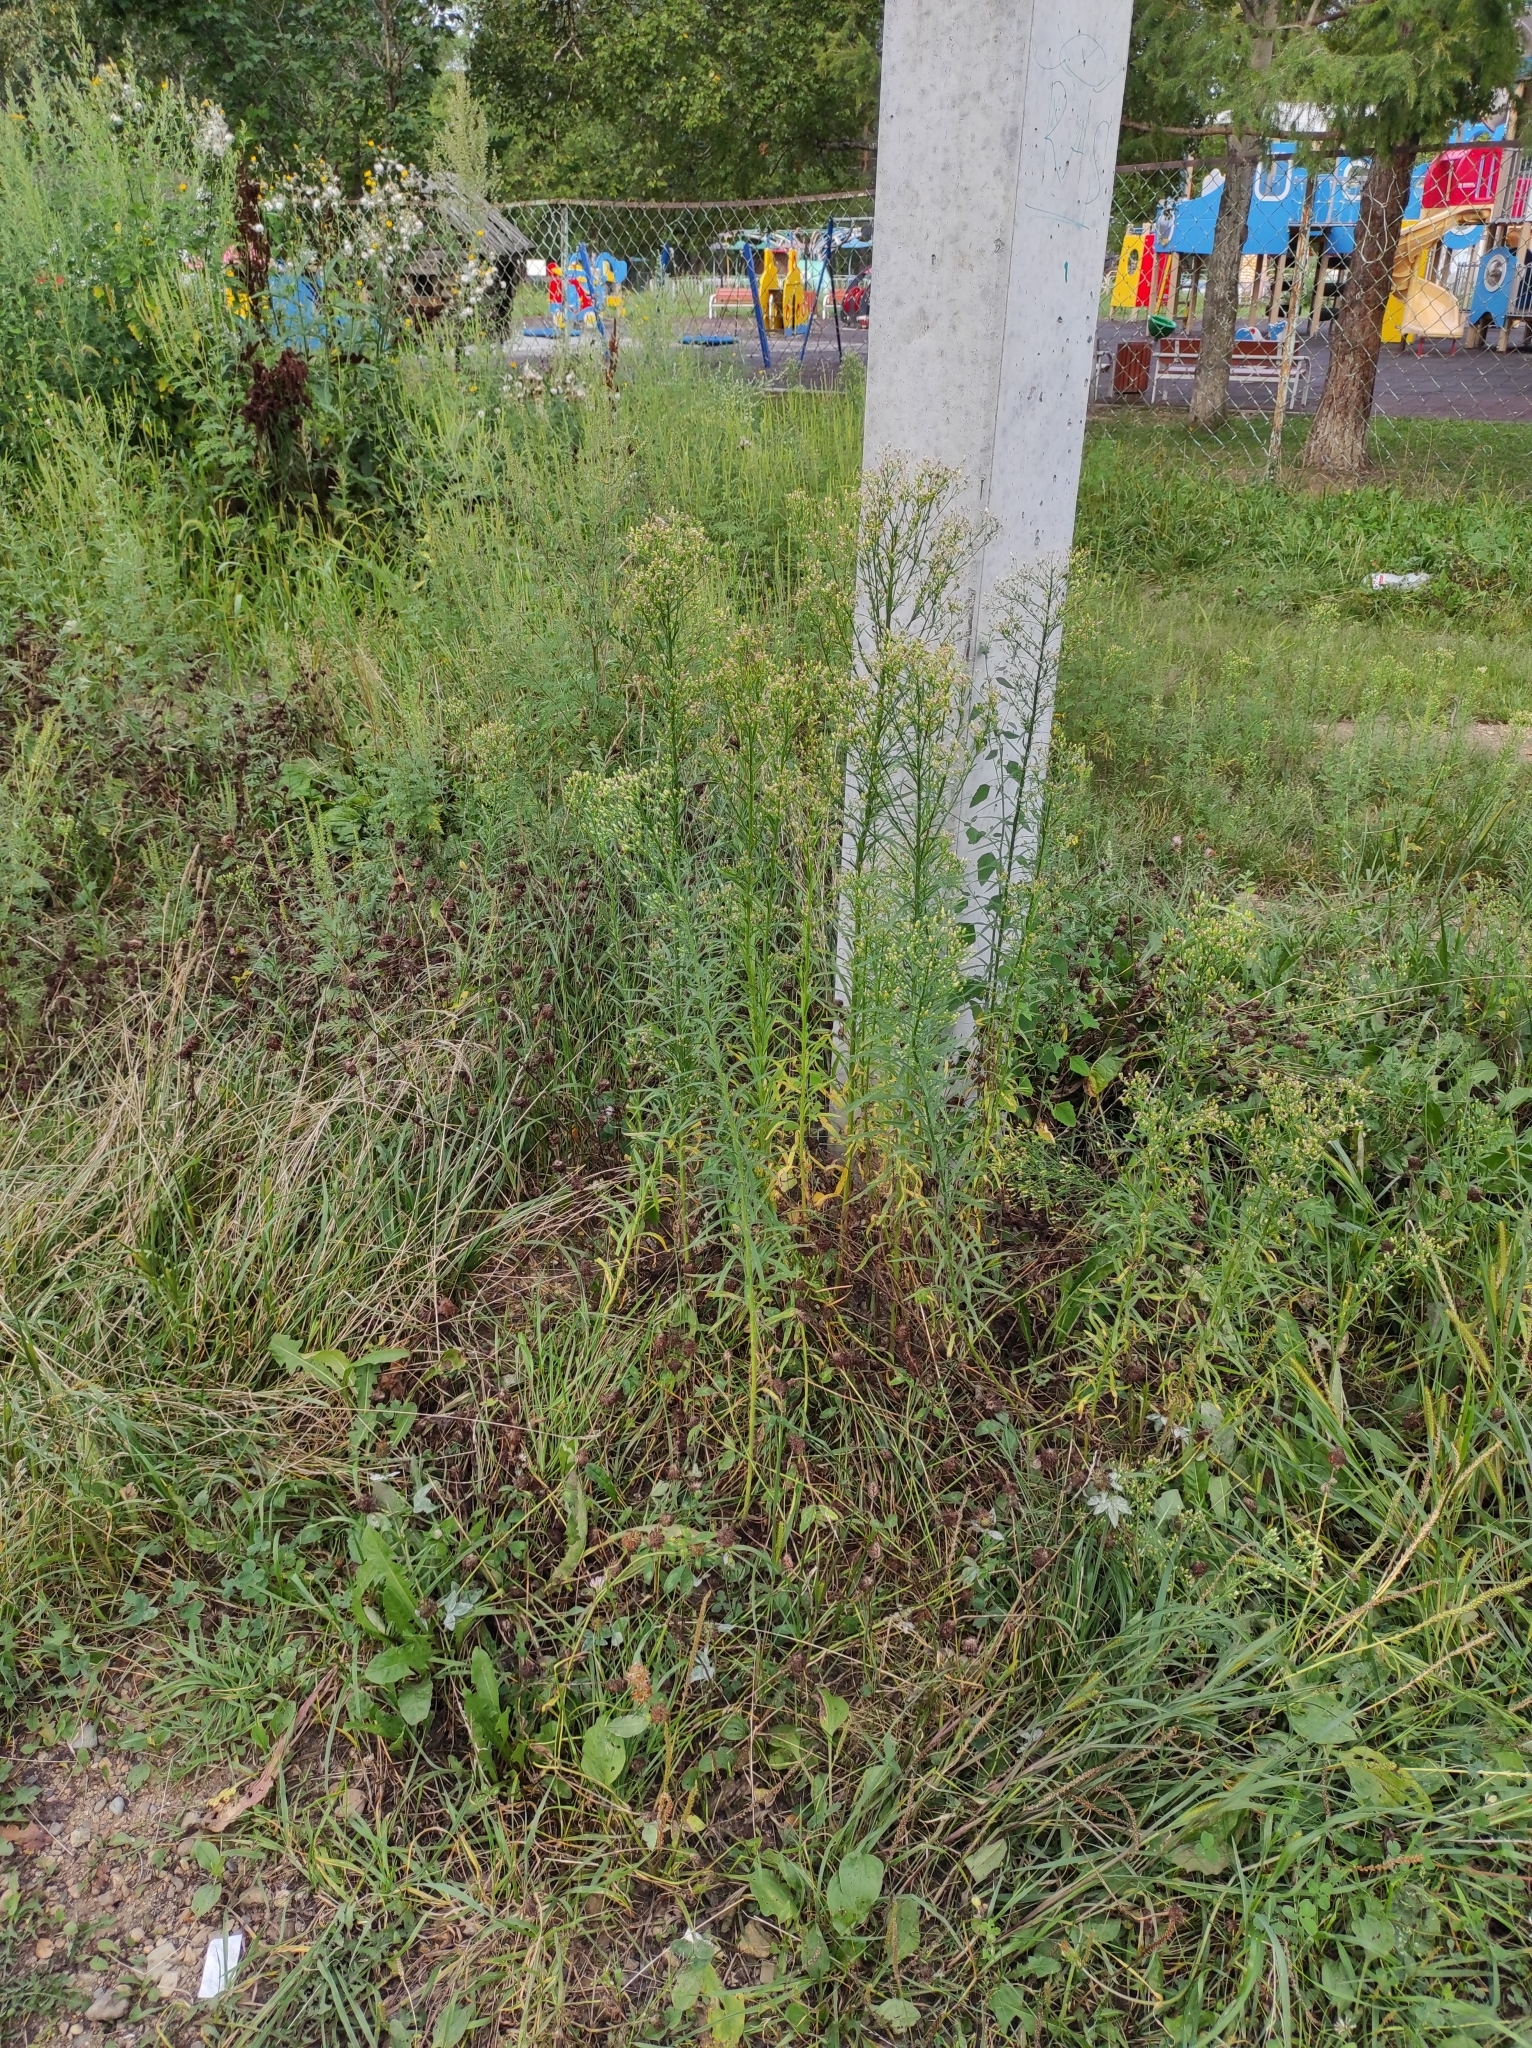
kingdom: Plantae
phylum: Tracheophyta
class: Magnoliopsida
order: Asterales
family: Asteraceae
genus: Erigeron
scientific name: Erigeron canadensis
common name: Canadian fleabane
